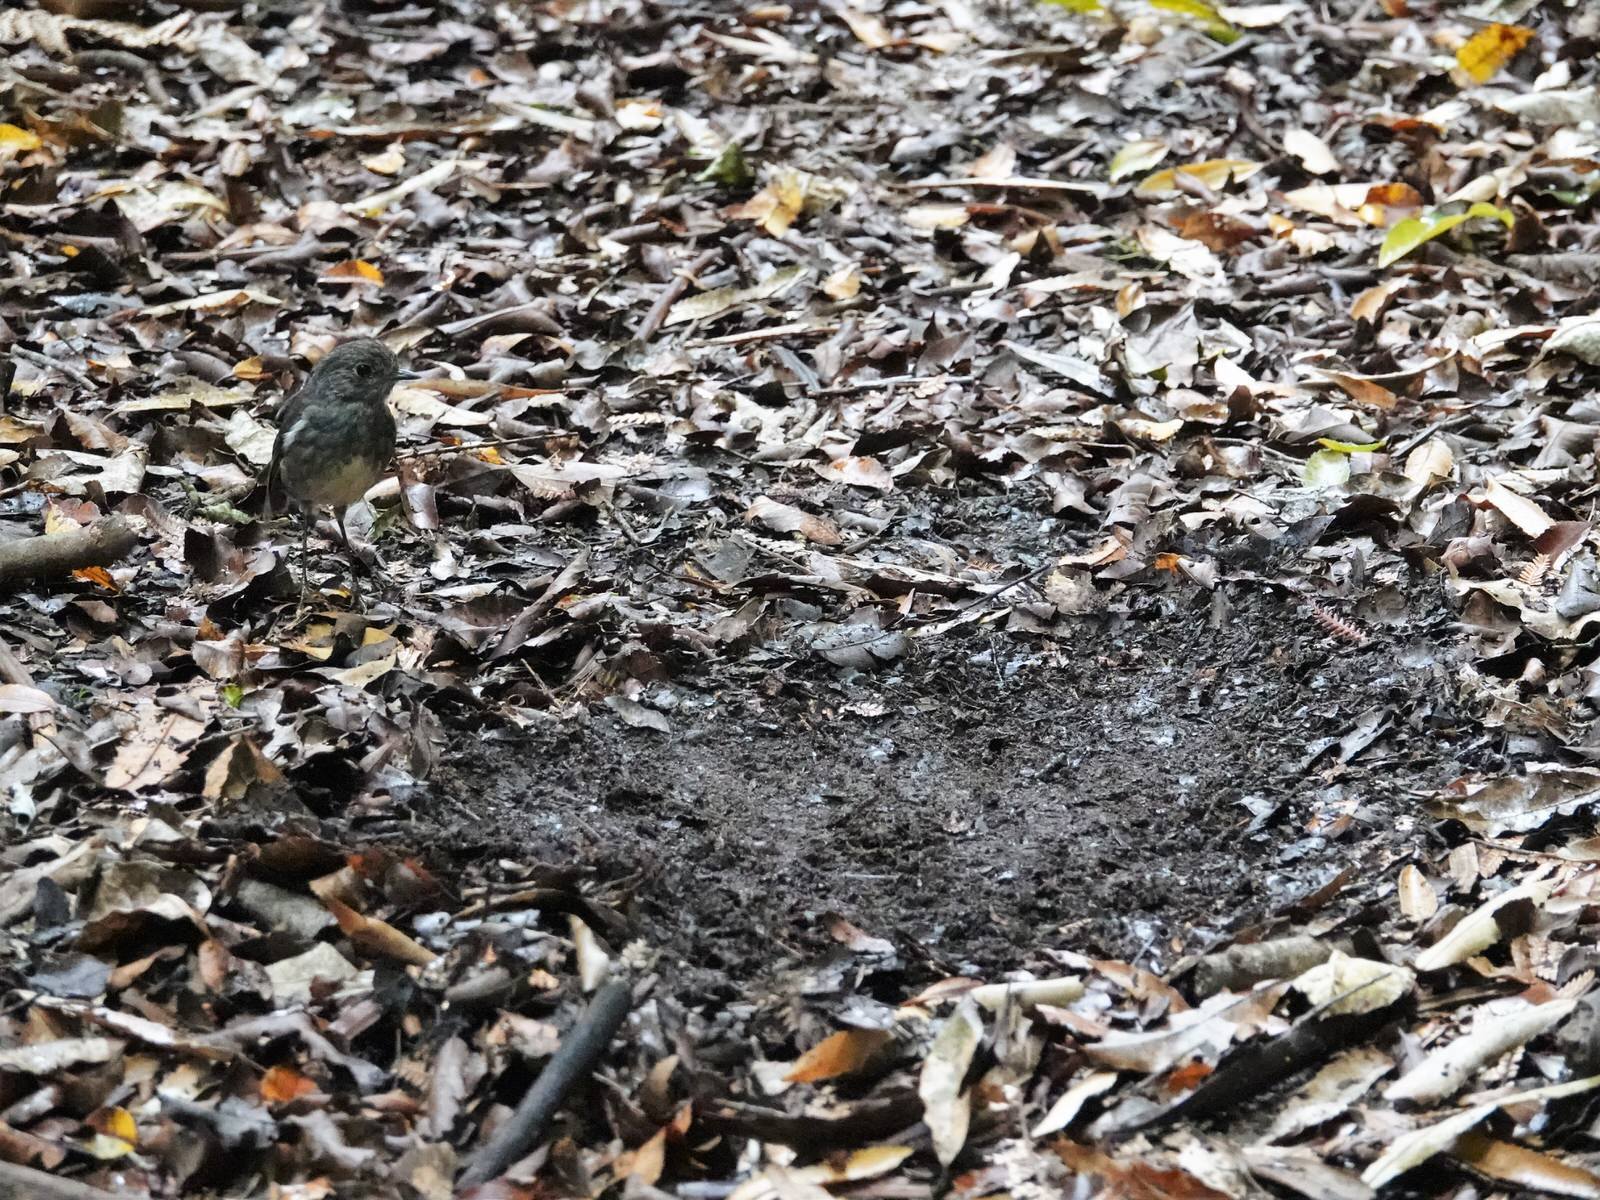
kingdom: Animalia
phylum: Chordata
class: Aves
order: Passeriformes
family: Petroicidae
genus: Petroica
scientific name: Petroica australis
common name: New zealand robin
